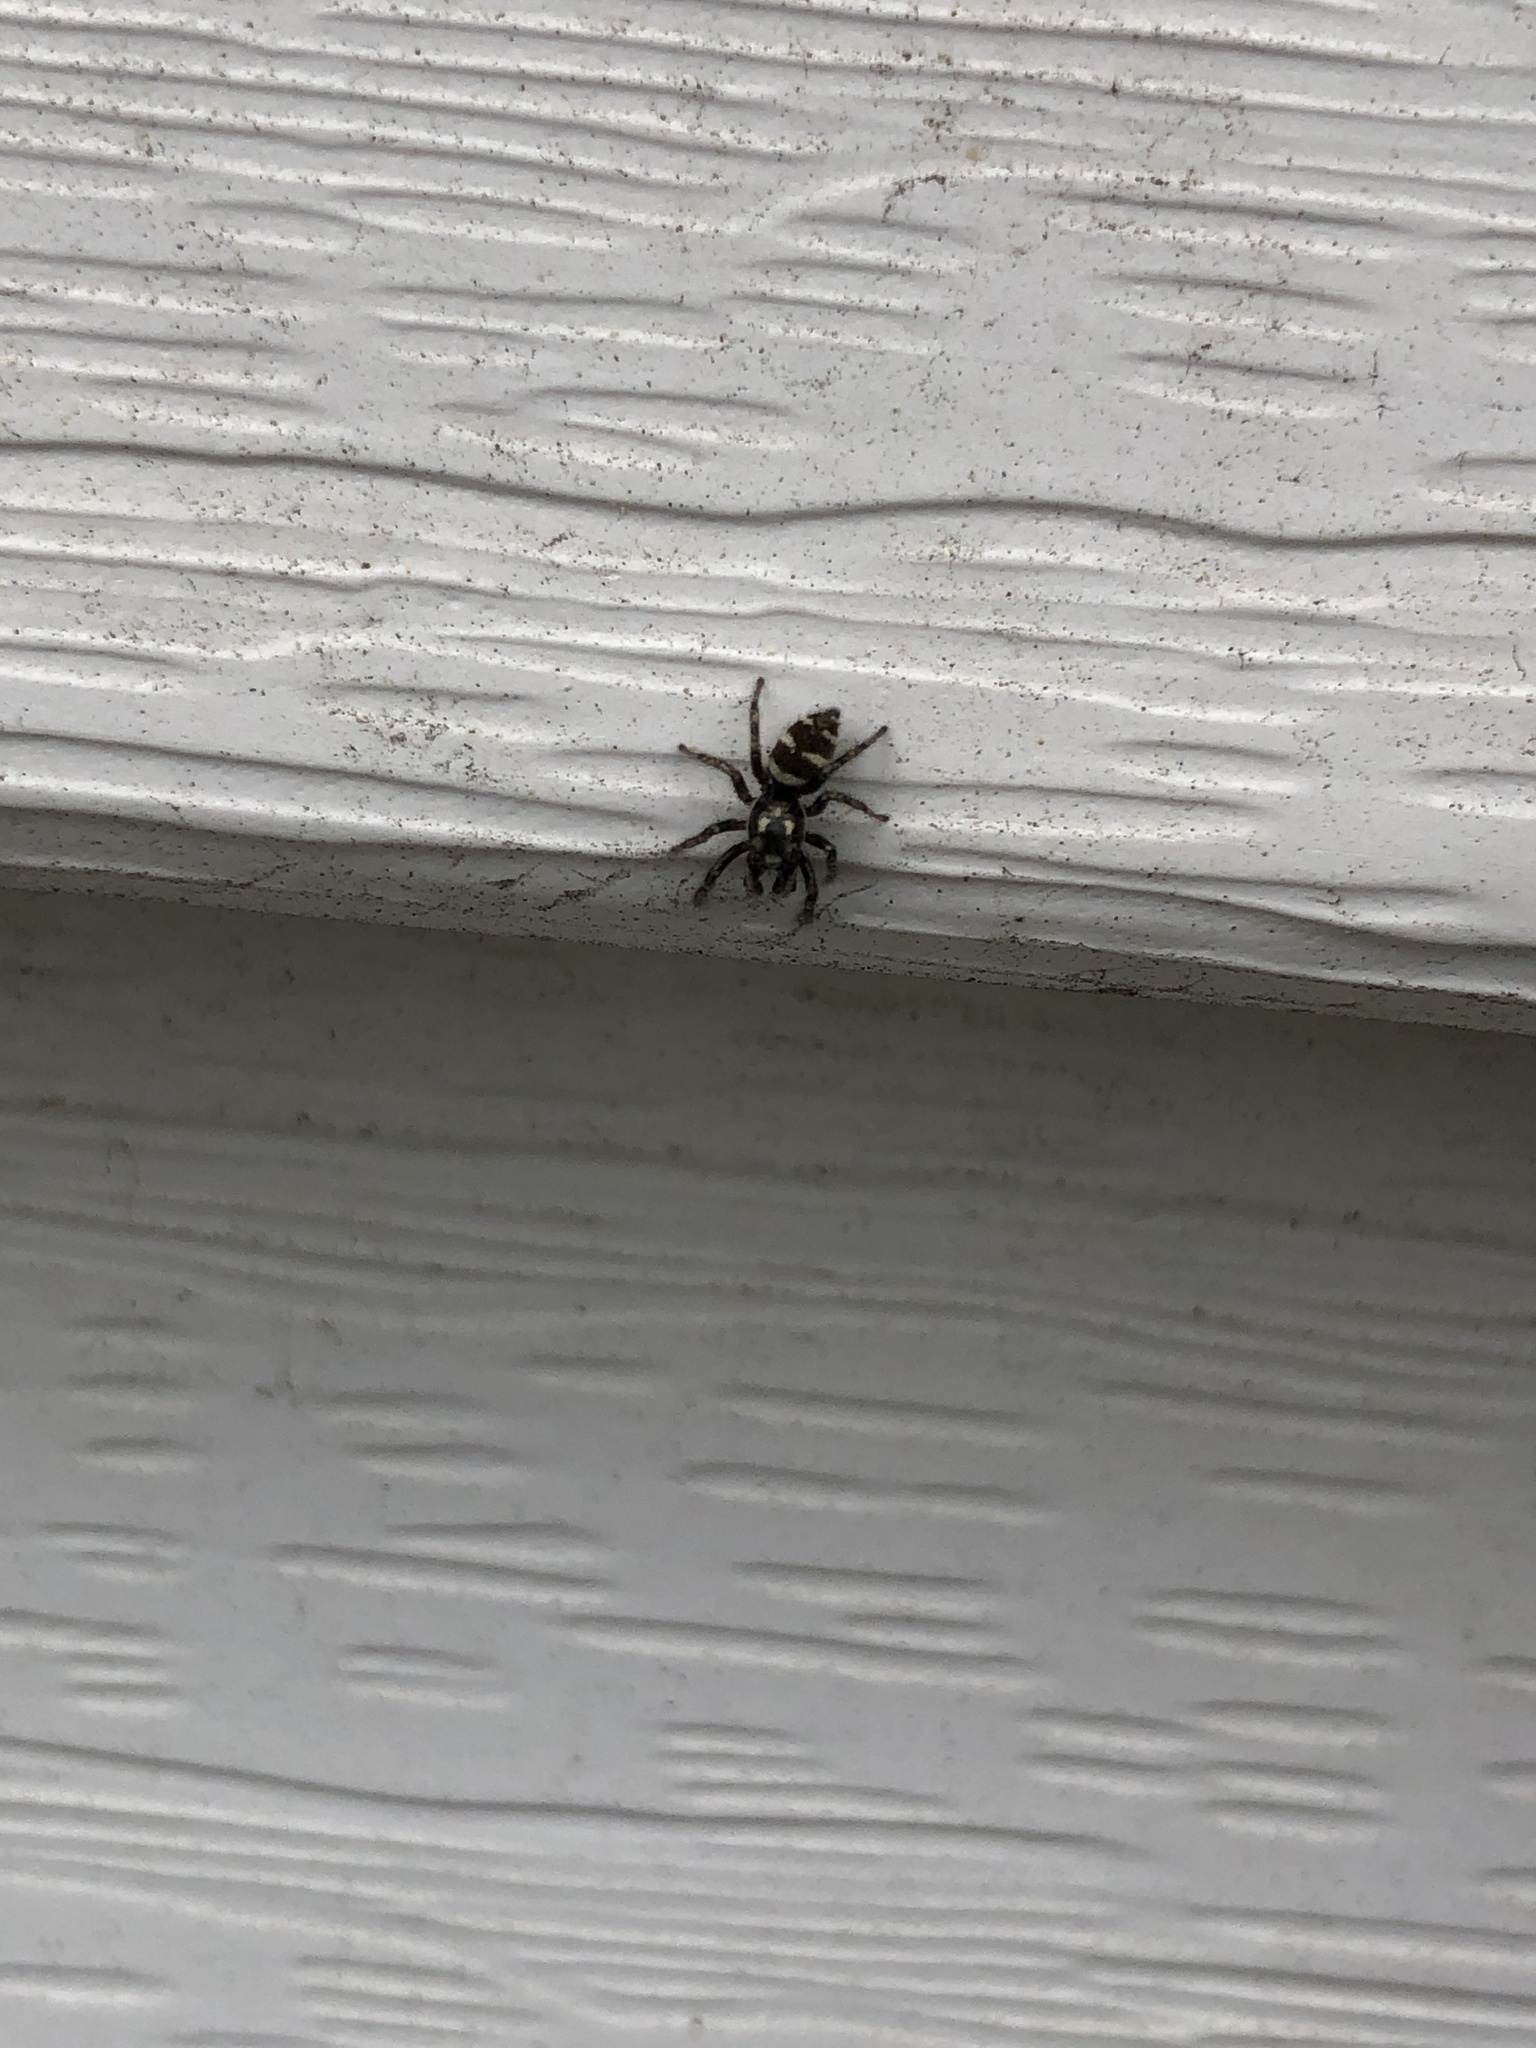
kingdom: Animalia
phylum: Arthropoda
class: Arachnida
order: Araneae
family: Salticidae
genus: Salticus
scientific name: Salticus scenicus
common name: Zebra jumper
